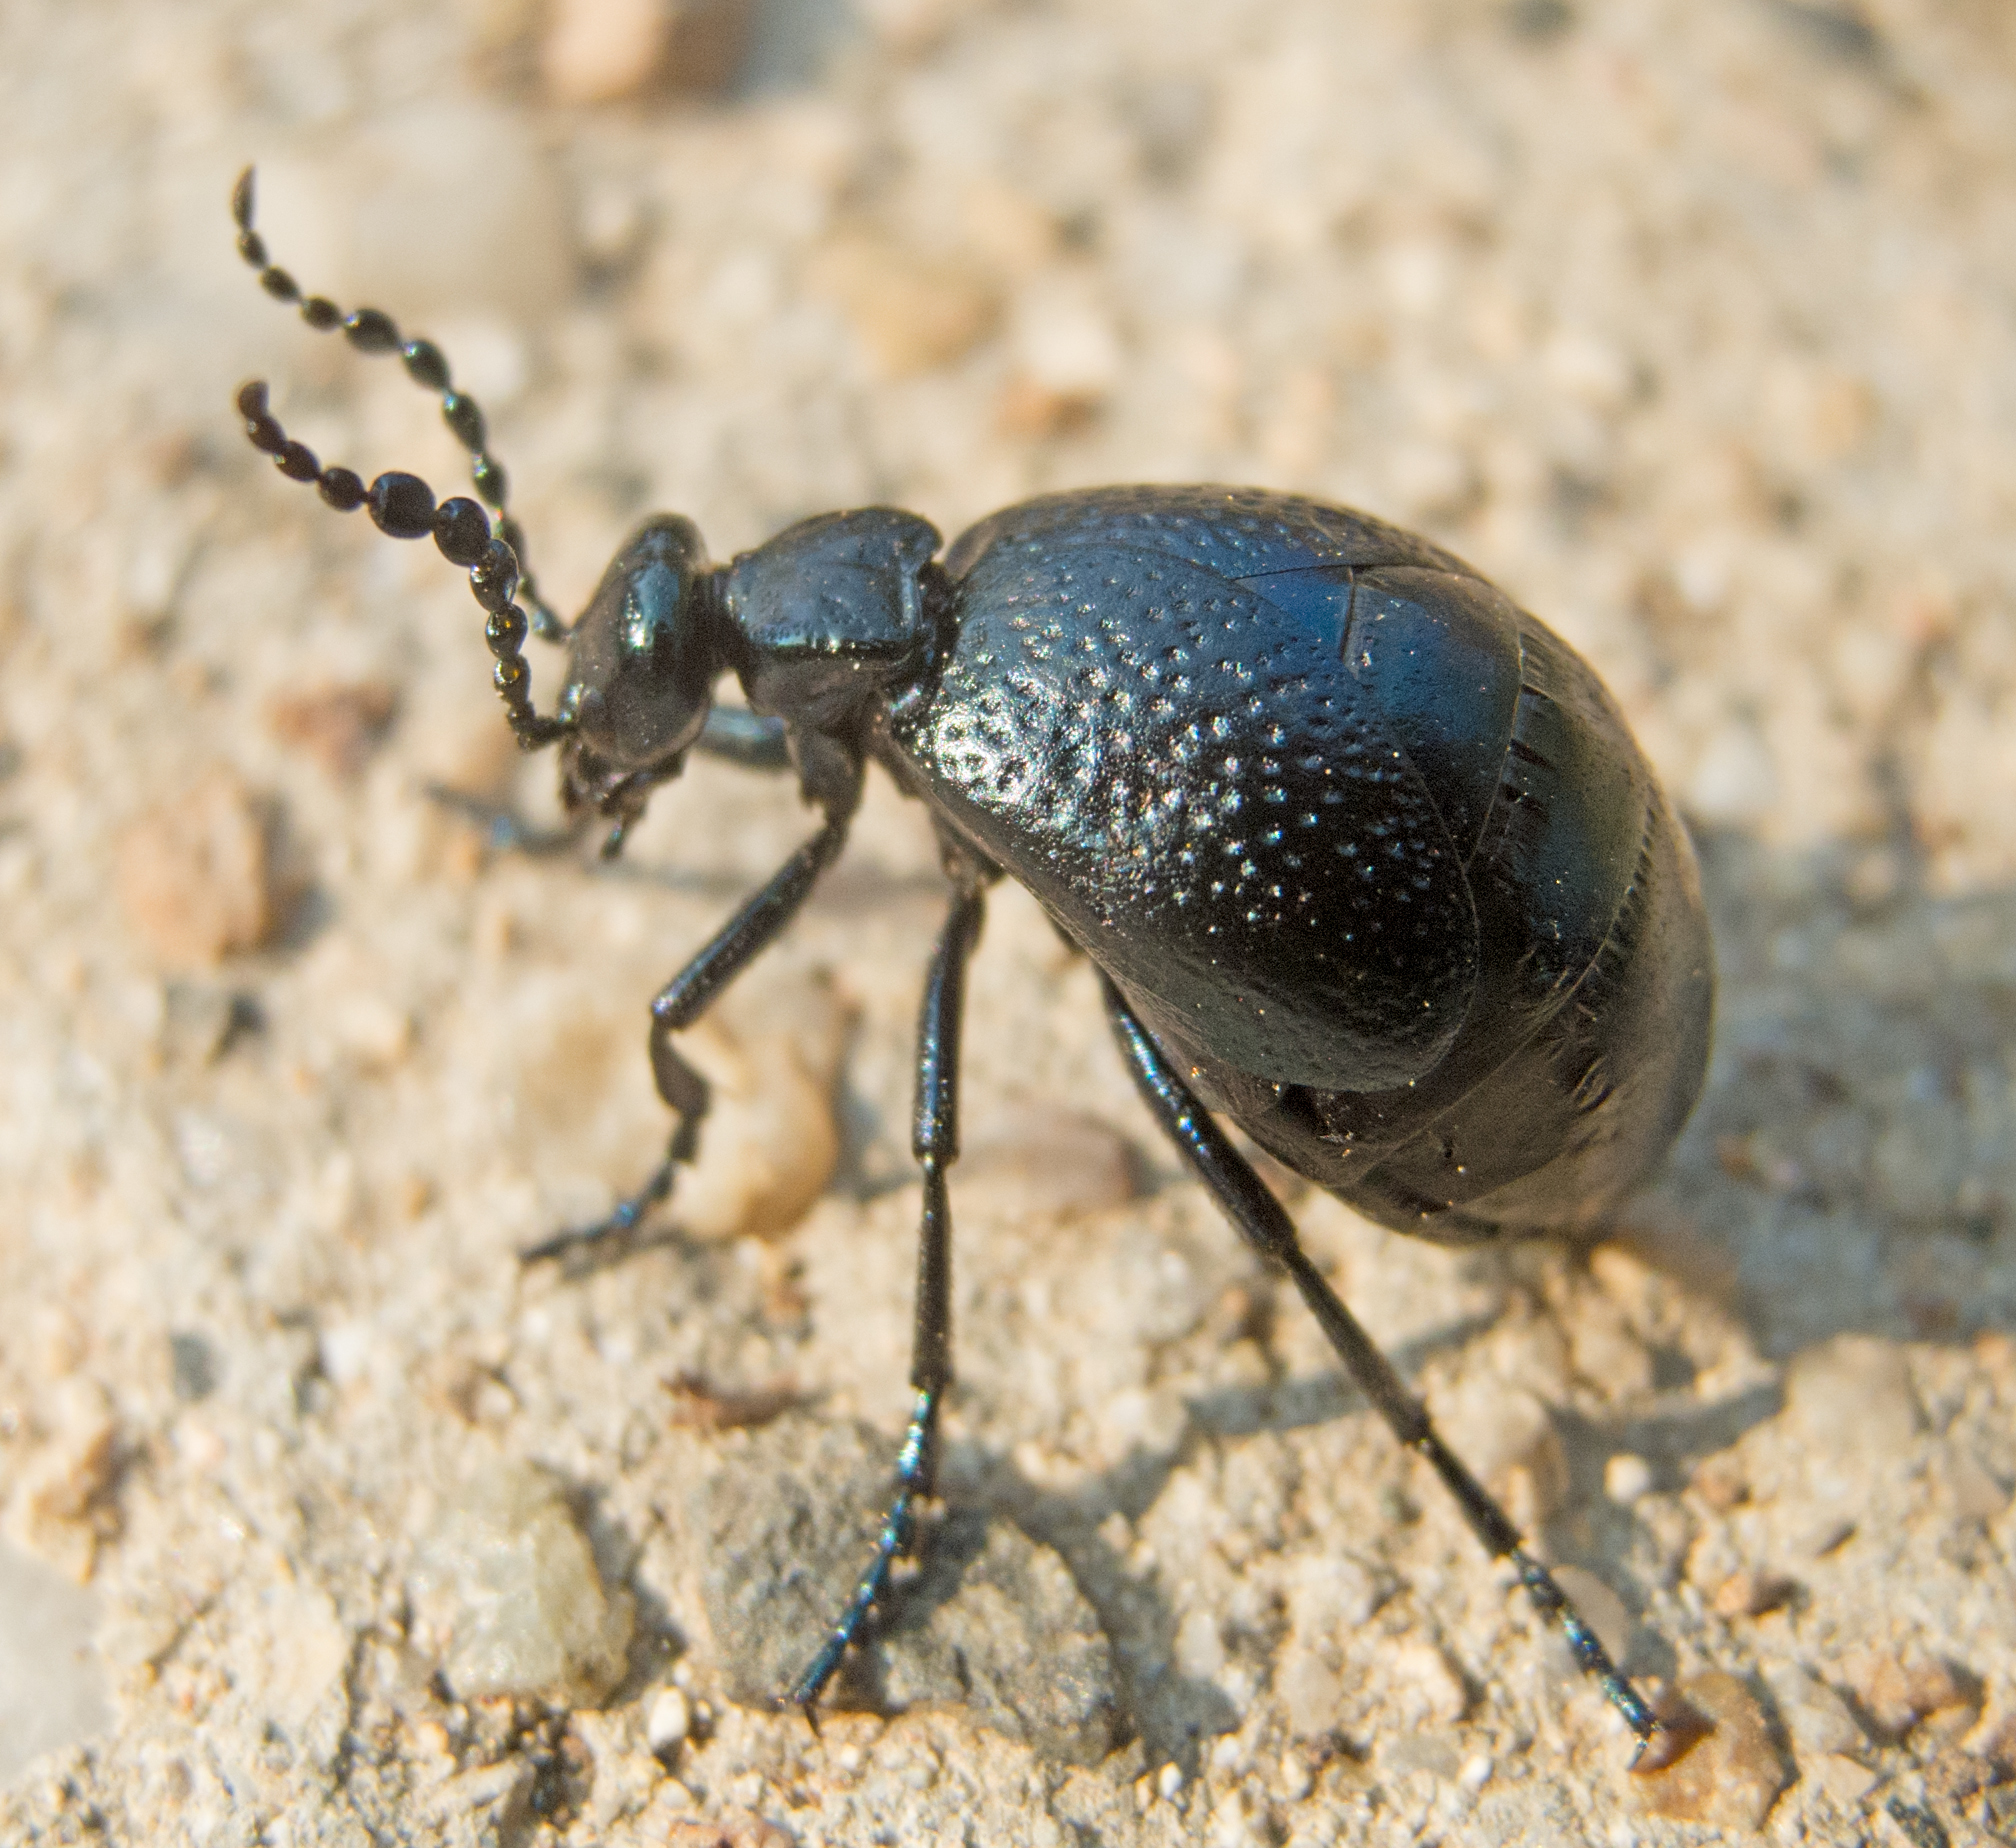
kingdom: Animalia
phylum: Arthropoda
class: Insecta
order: Coleoptera
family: Meloidae
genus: Meloe
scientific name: Meloe autumnalis
